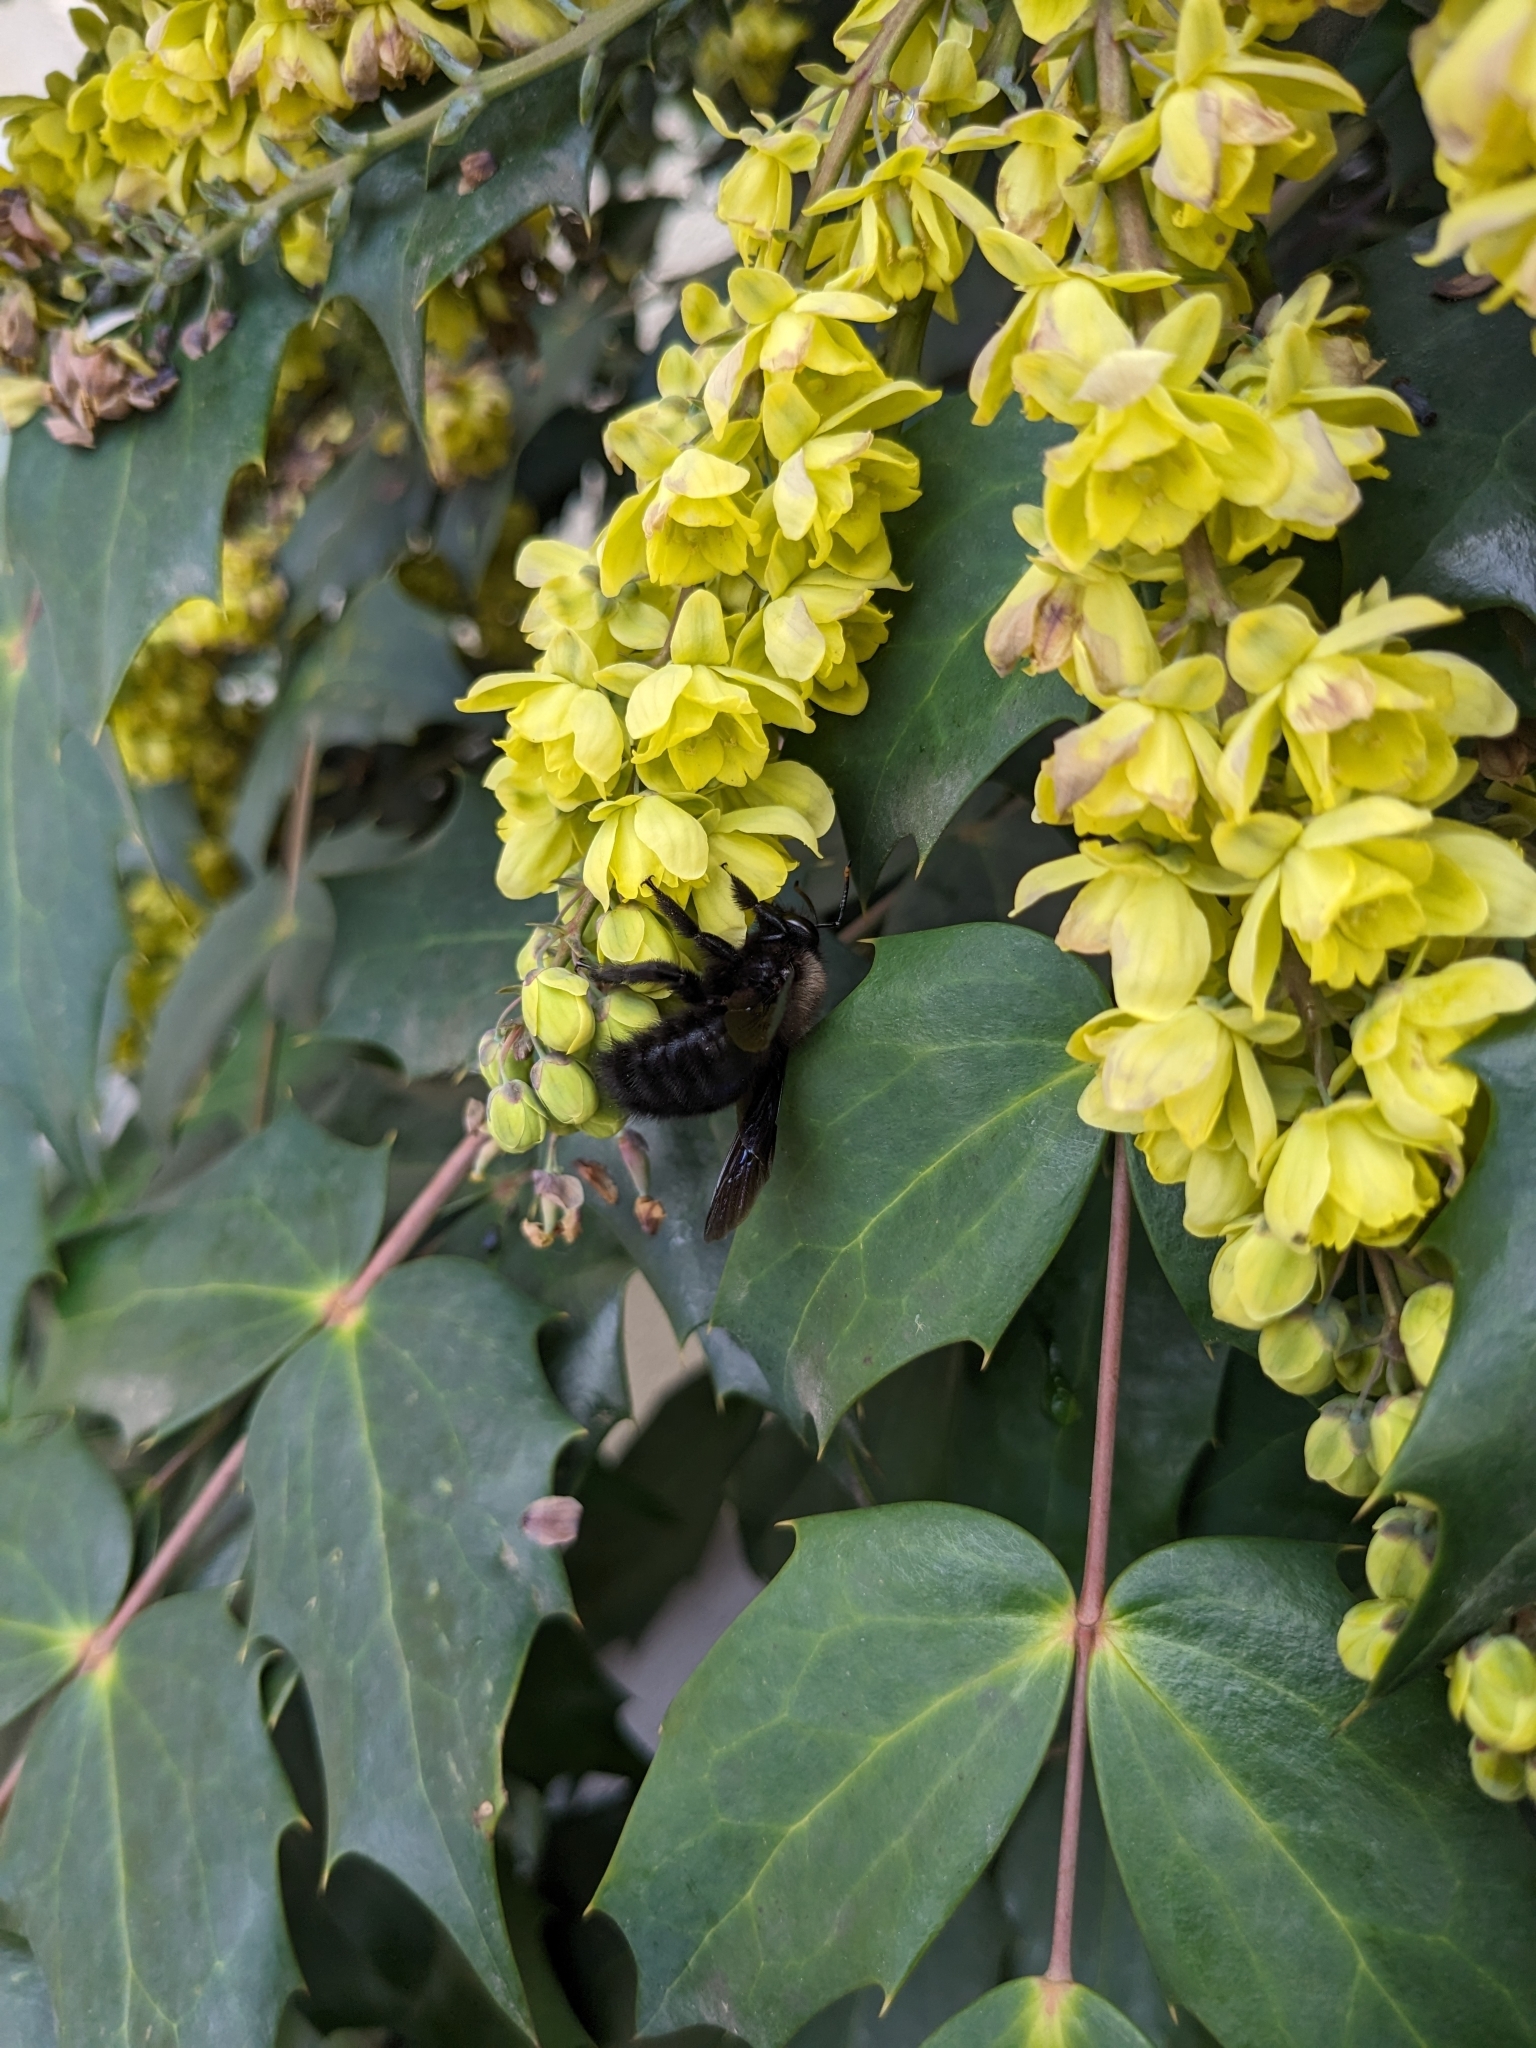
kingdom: Animalia
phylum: Arthropoda
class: Insecta
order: Hymenoptera
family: Apidae
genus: Xylocopa
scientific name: Xylocopa violacea
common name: Violet carpenter bee
